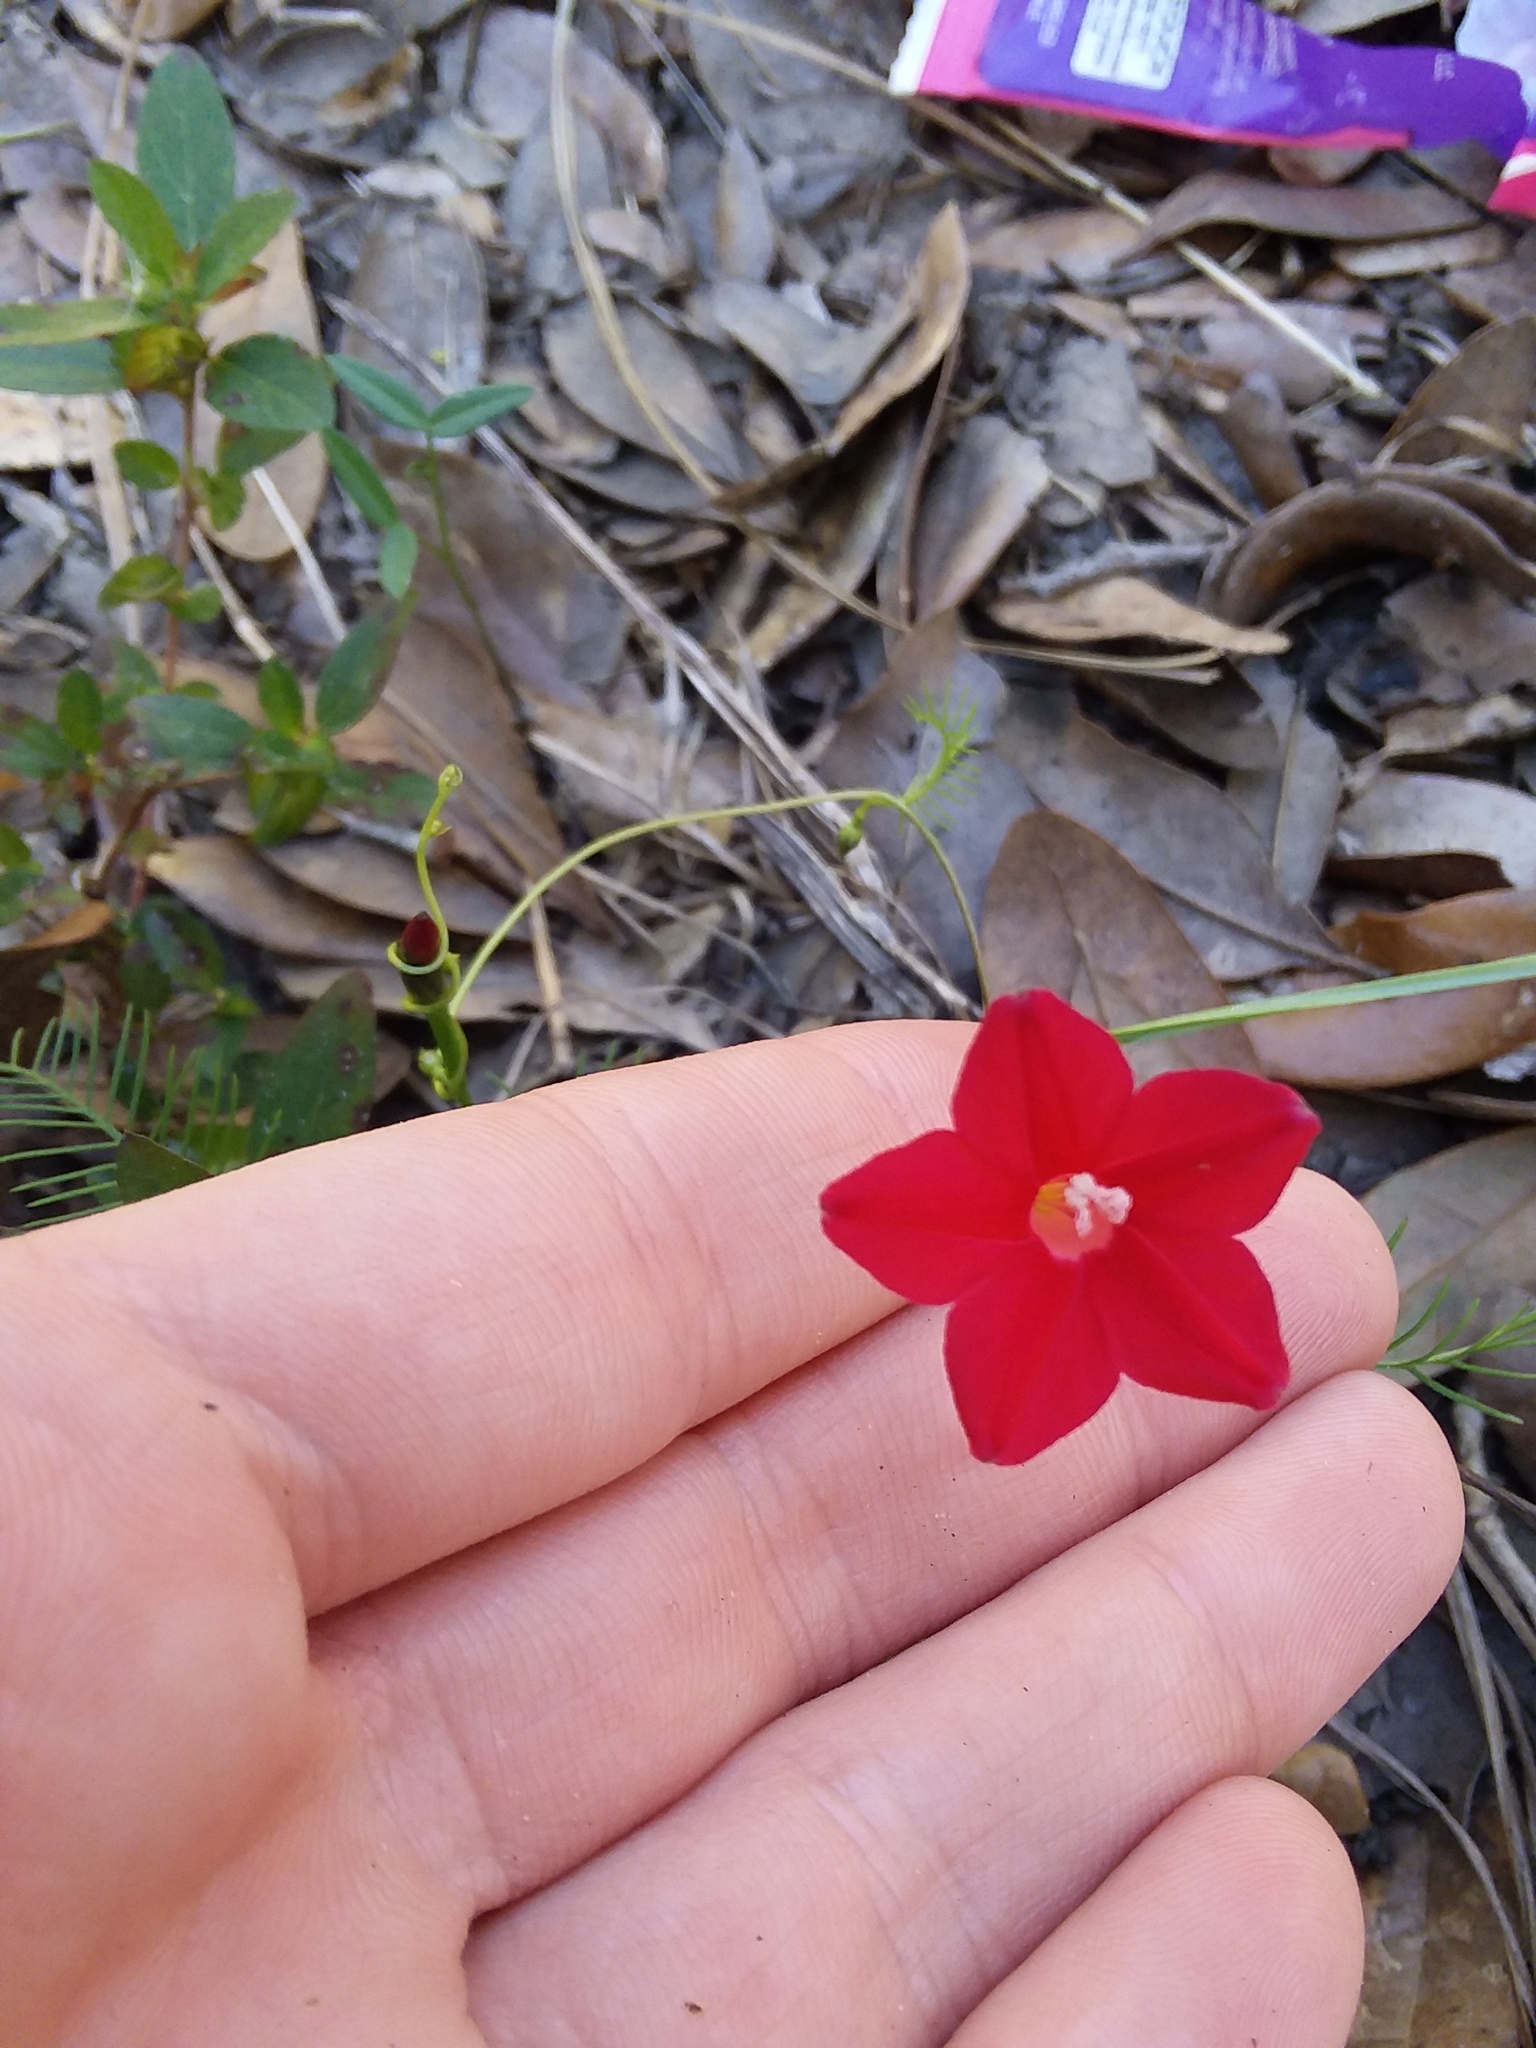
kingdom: Plantae
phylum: Tracheophyta
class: Magnoliopsida
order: Solanales
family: Convolvulaceae
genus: Ipomoea
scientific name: Ipomoea quamoclit
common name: Cypress vine
